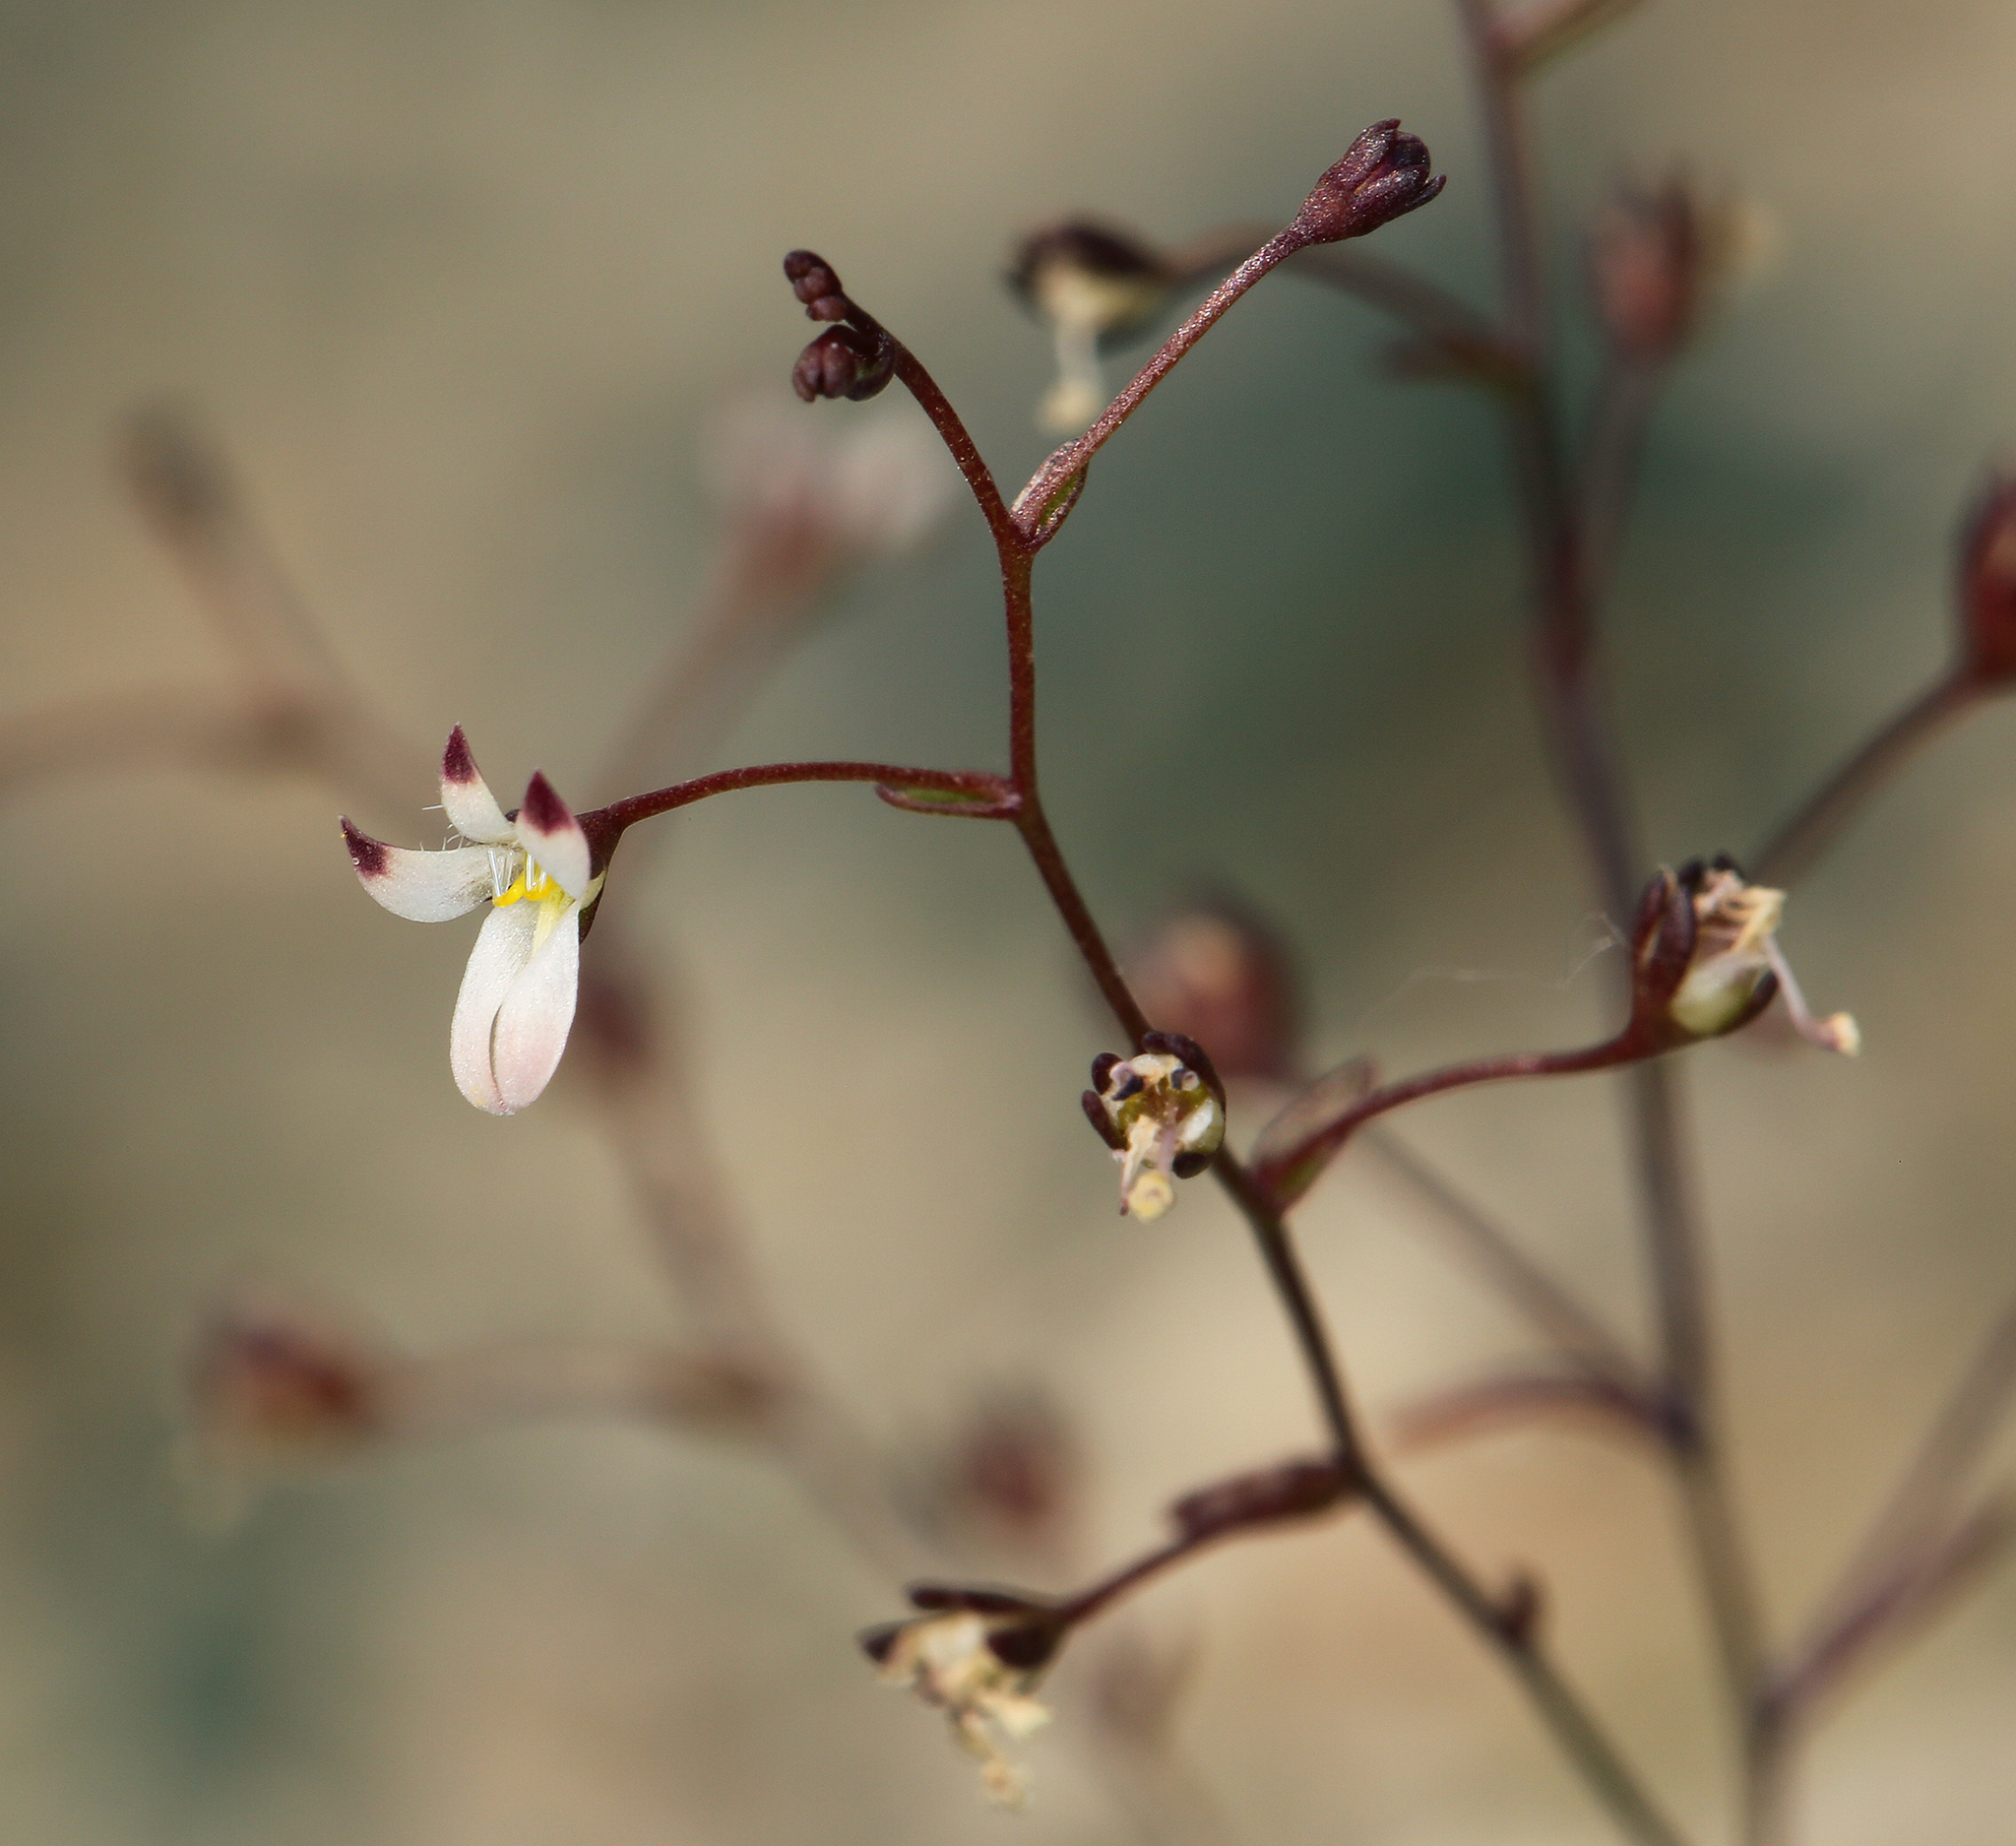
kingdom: Plantae
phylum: Tracheophyta
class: Magnoliopsida
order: Asterales
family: Campanulaceae
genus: Nemacladus
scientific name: Nemacladus orientalis
